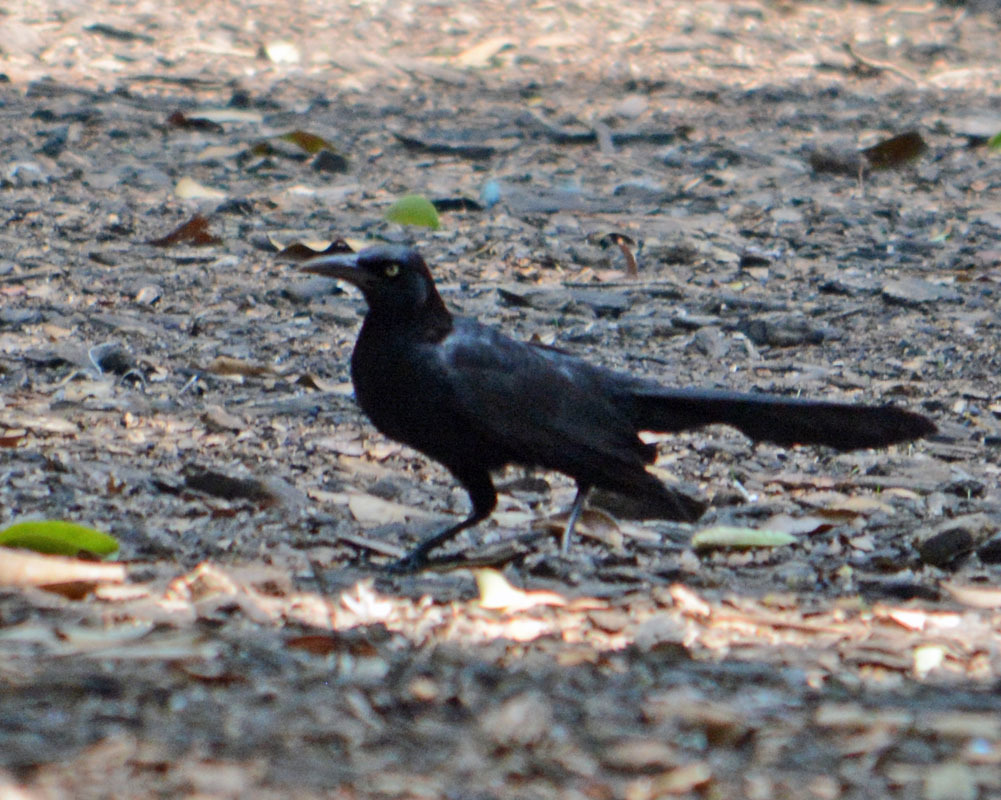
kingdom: Animalia
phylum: Chordata
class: Aves
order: Passeriformes
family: Icteridae
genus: Quiscalus
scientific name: Quiscalus mexicanus
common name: Great-tailed grackle
